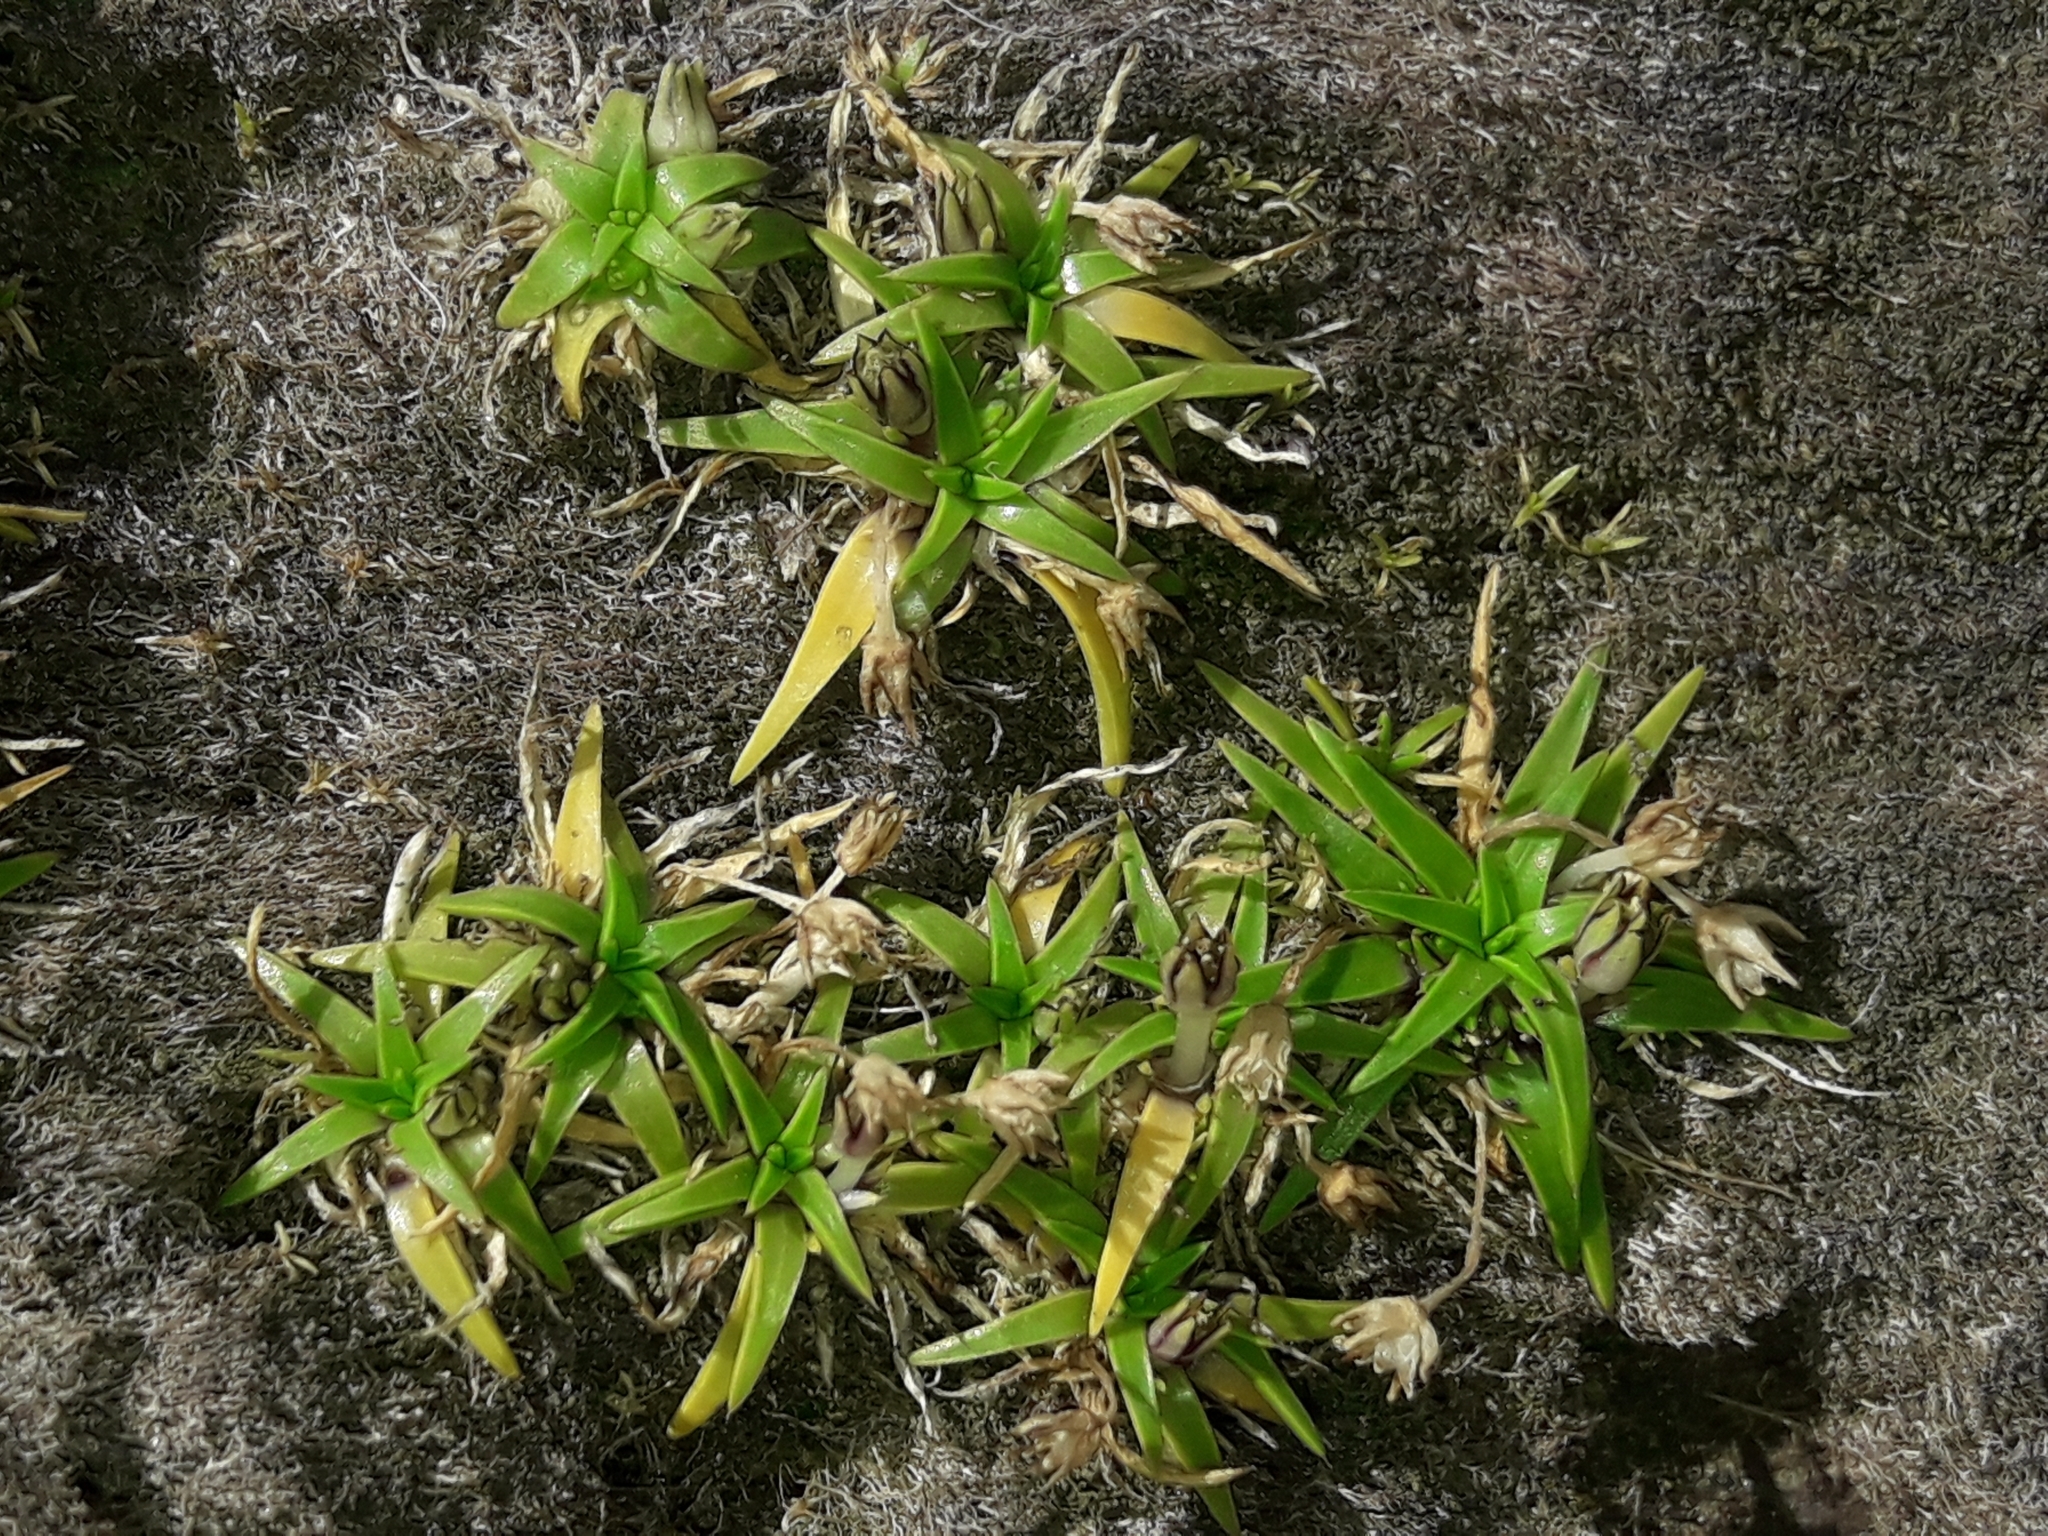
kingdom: Plantae
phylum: Tracheophyta
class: Magnoliopsida
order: Caryophyllales
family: Caryophyllaceae
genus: Colobanthus
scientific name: Colobanthus muelleri
